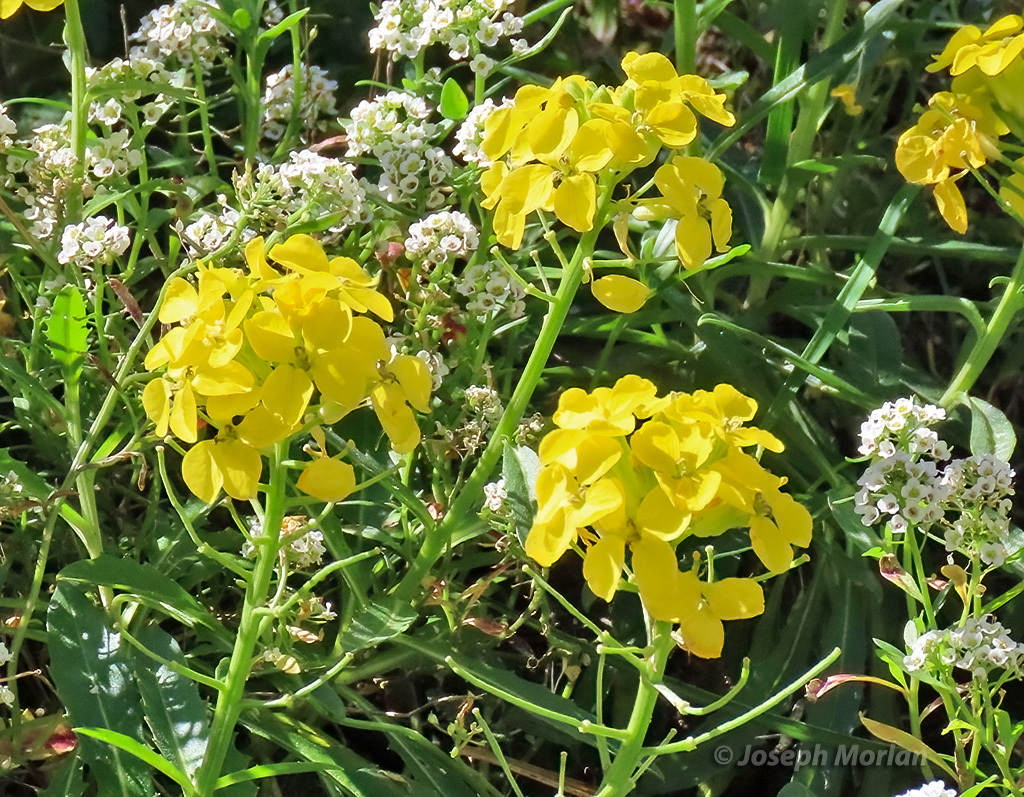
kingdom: Plantae
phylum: Tracheophyta
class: Magnoliopsida
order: Brassicales
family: Brassicaceae
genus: Erysimum
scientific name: Erysimum franciscanum
